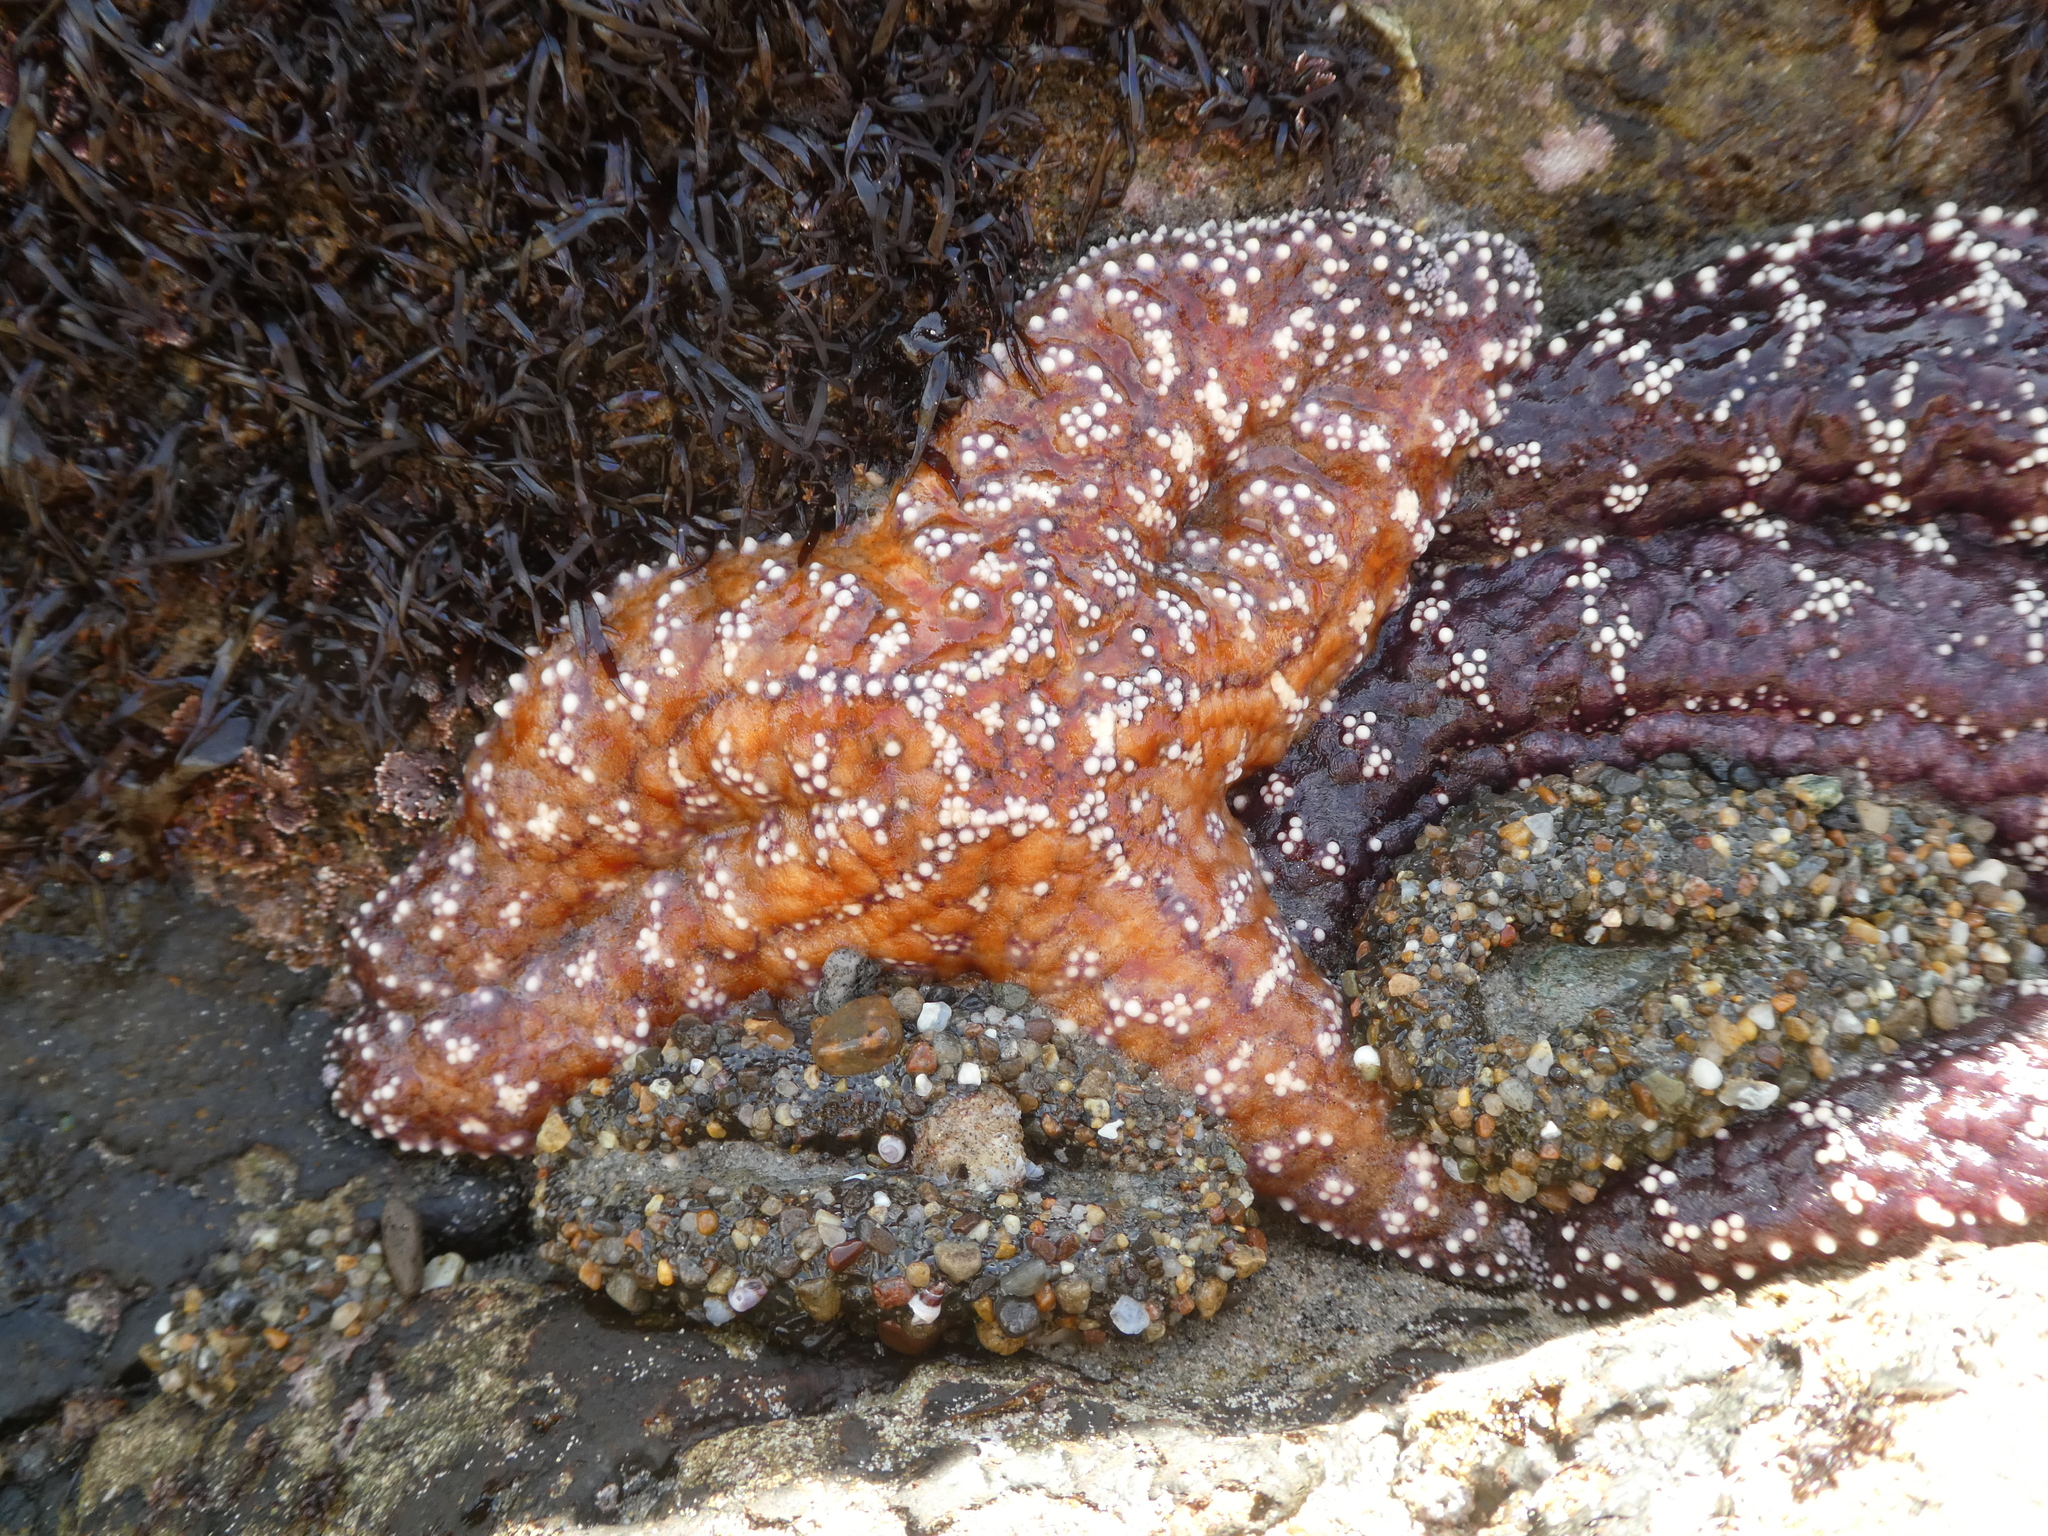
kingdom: Animalia
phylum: Echinodermata
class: Asteroidea
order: Forcipulatida
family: Asteriidae
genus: Pisaster
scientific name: Pisaster ochraceus
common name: Ochre stars
